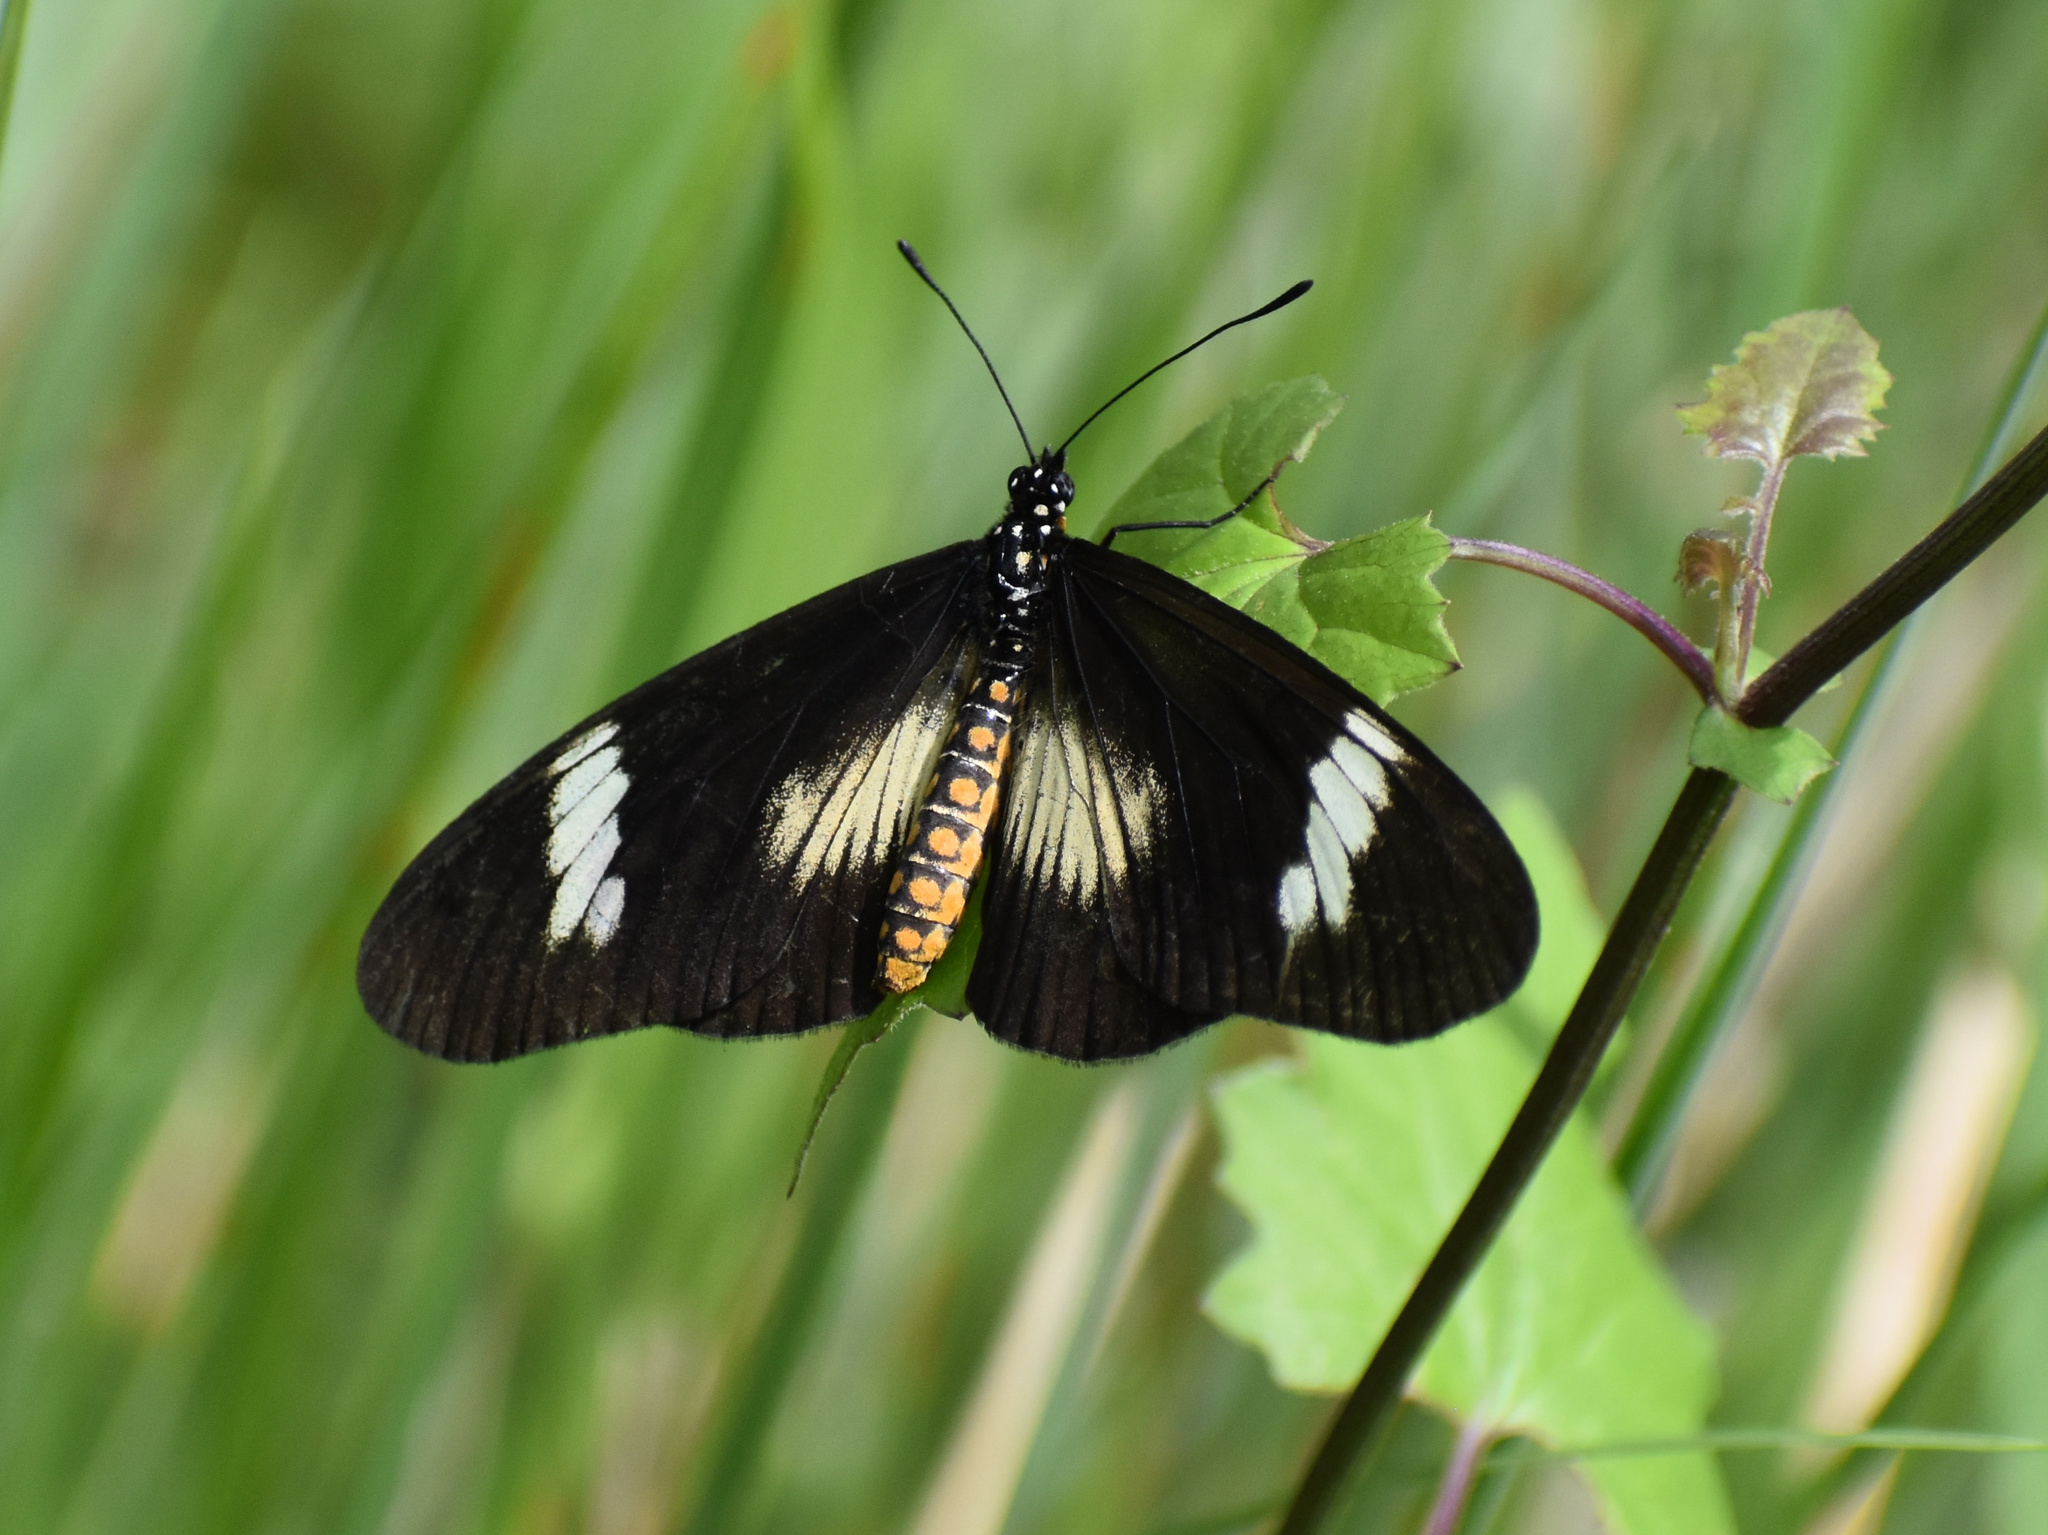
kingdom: Animalia
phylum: Arthropoda
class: Insecta
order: Lepidoptera
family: Nymphalidae
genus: Acraea
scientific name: Acraea esebria
